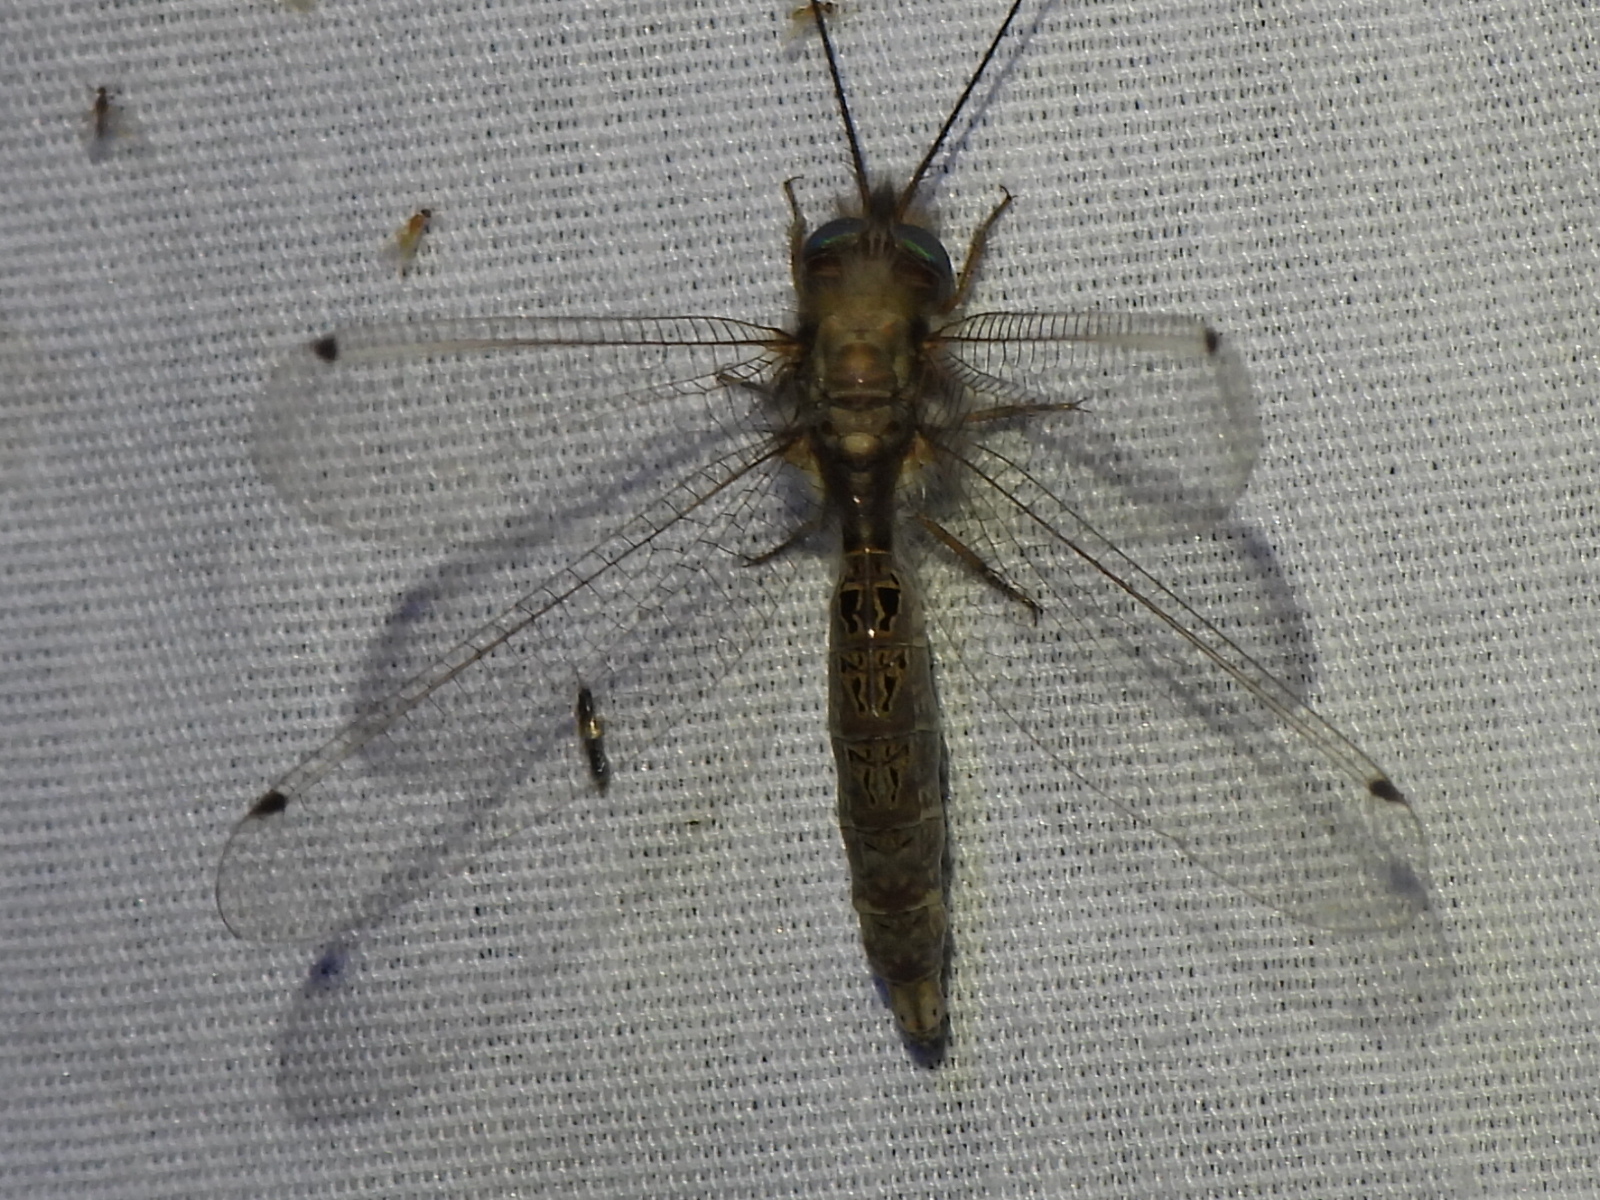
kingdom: Animalia
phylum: Arthropoda
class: Insecta
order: Neuroptera
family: Ascalaphidae
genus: Ululodes
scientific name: Ululodes macleayanus
